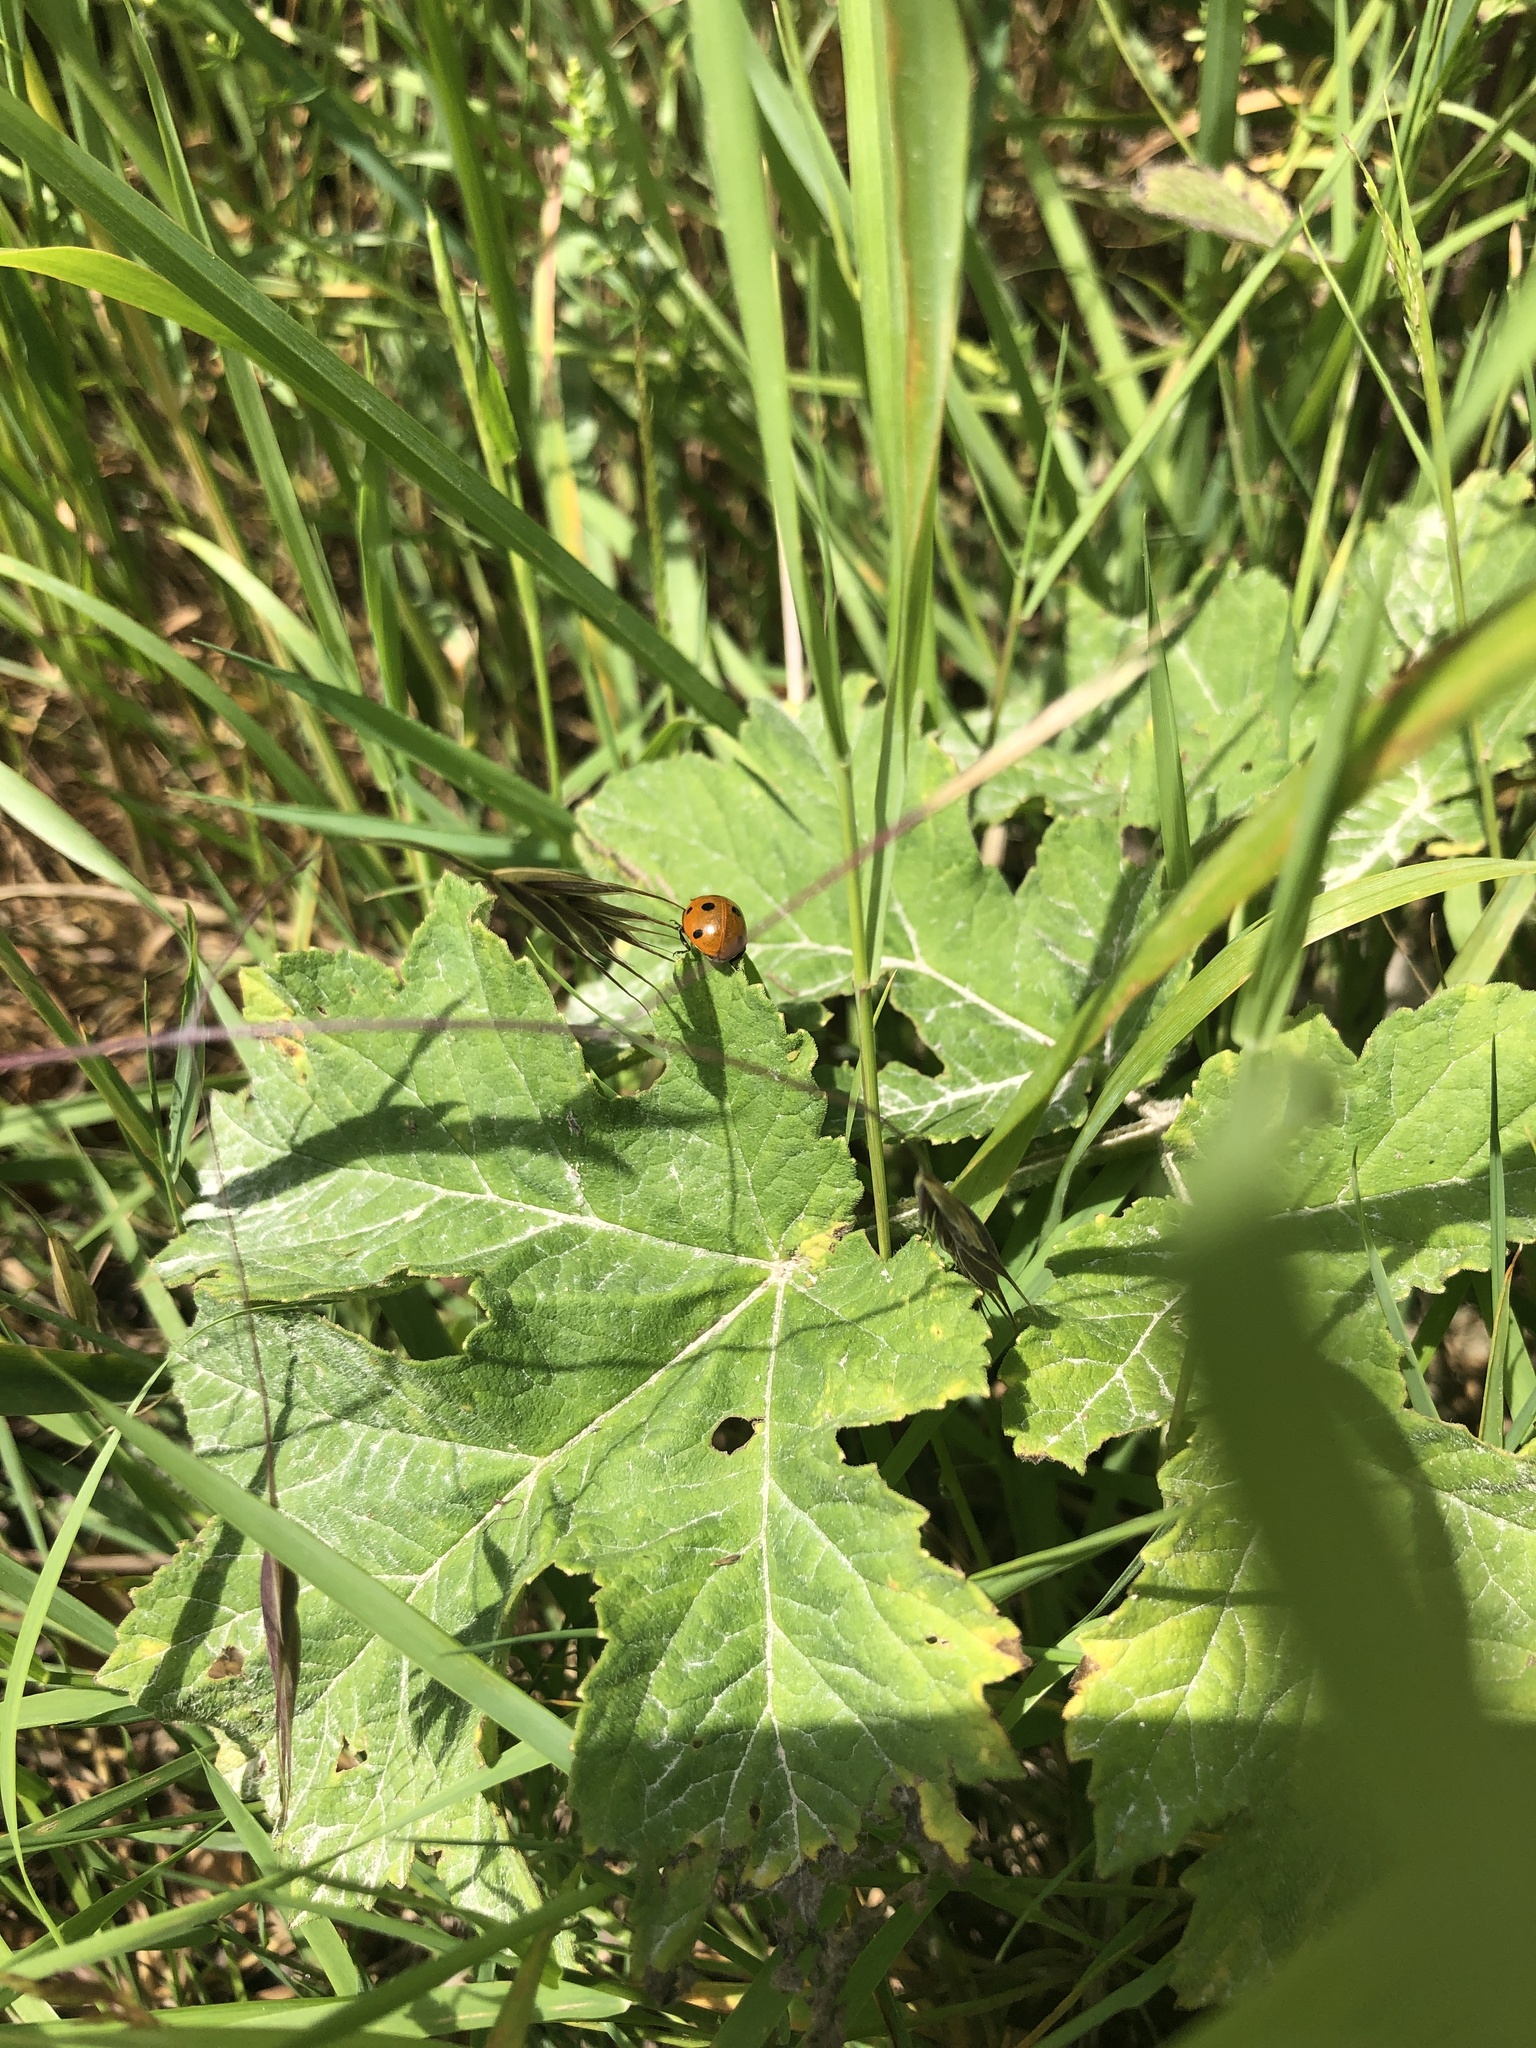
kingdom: Animalia
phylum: Arthropoda
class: Insecta
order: Coleoptera
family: Coccinellidae
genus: Coccinella
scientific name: Coccinella septempunctata
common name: Sevenspotted lady beetle
